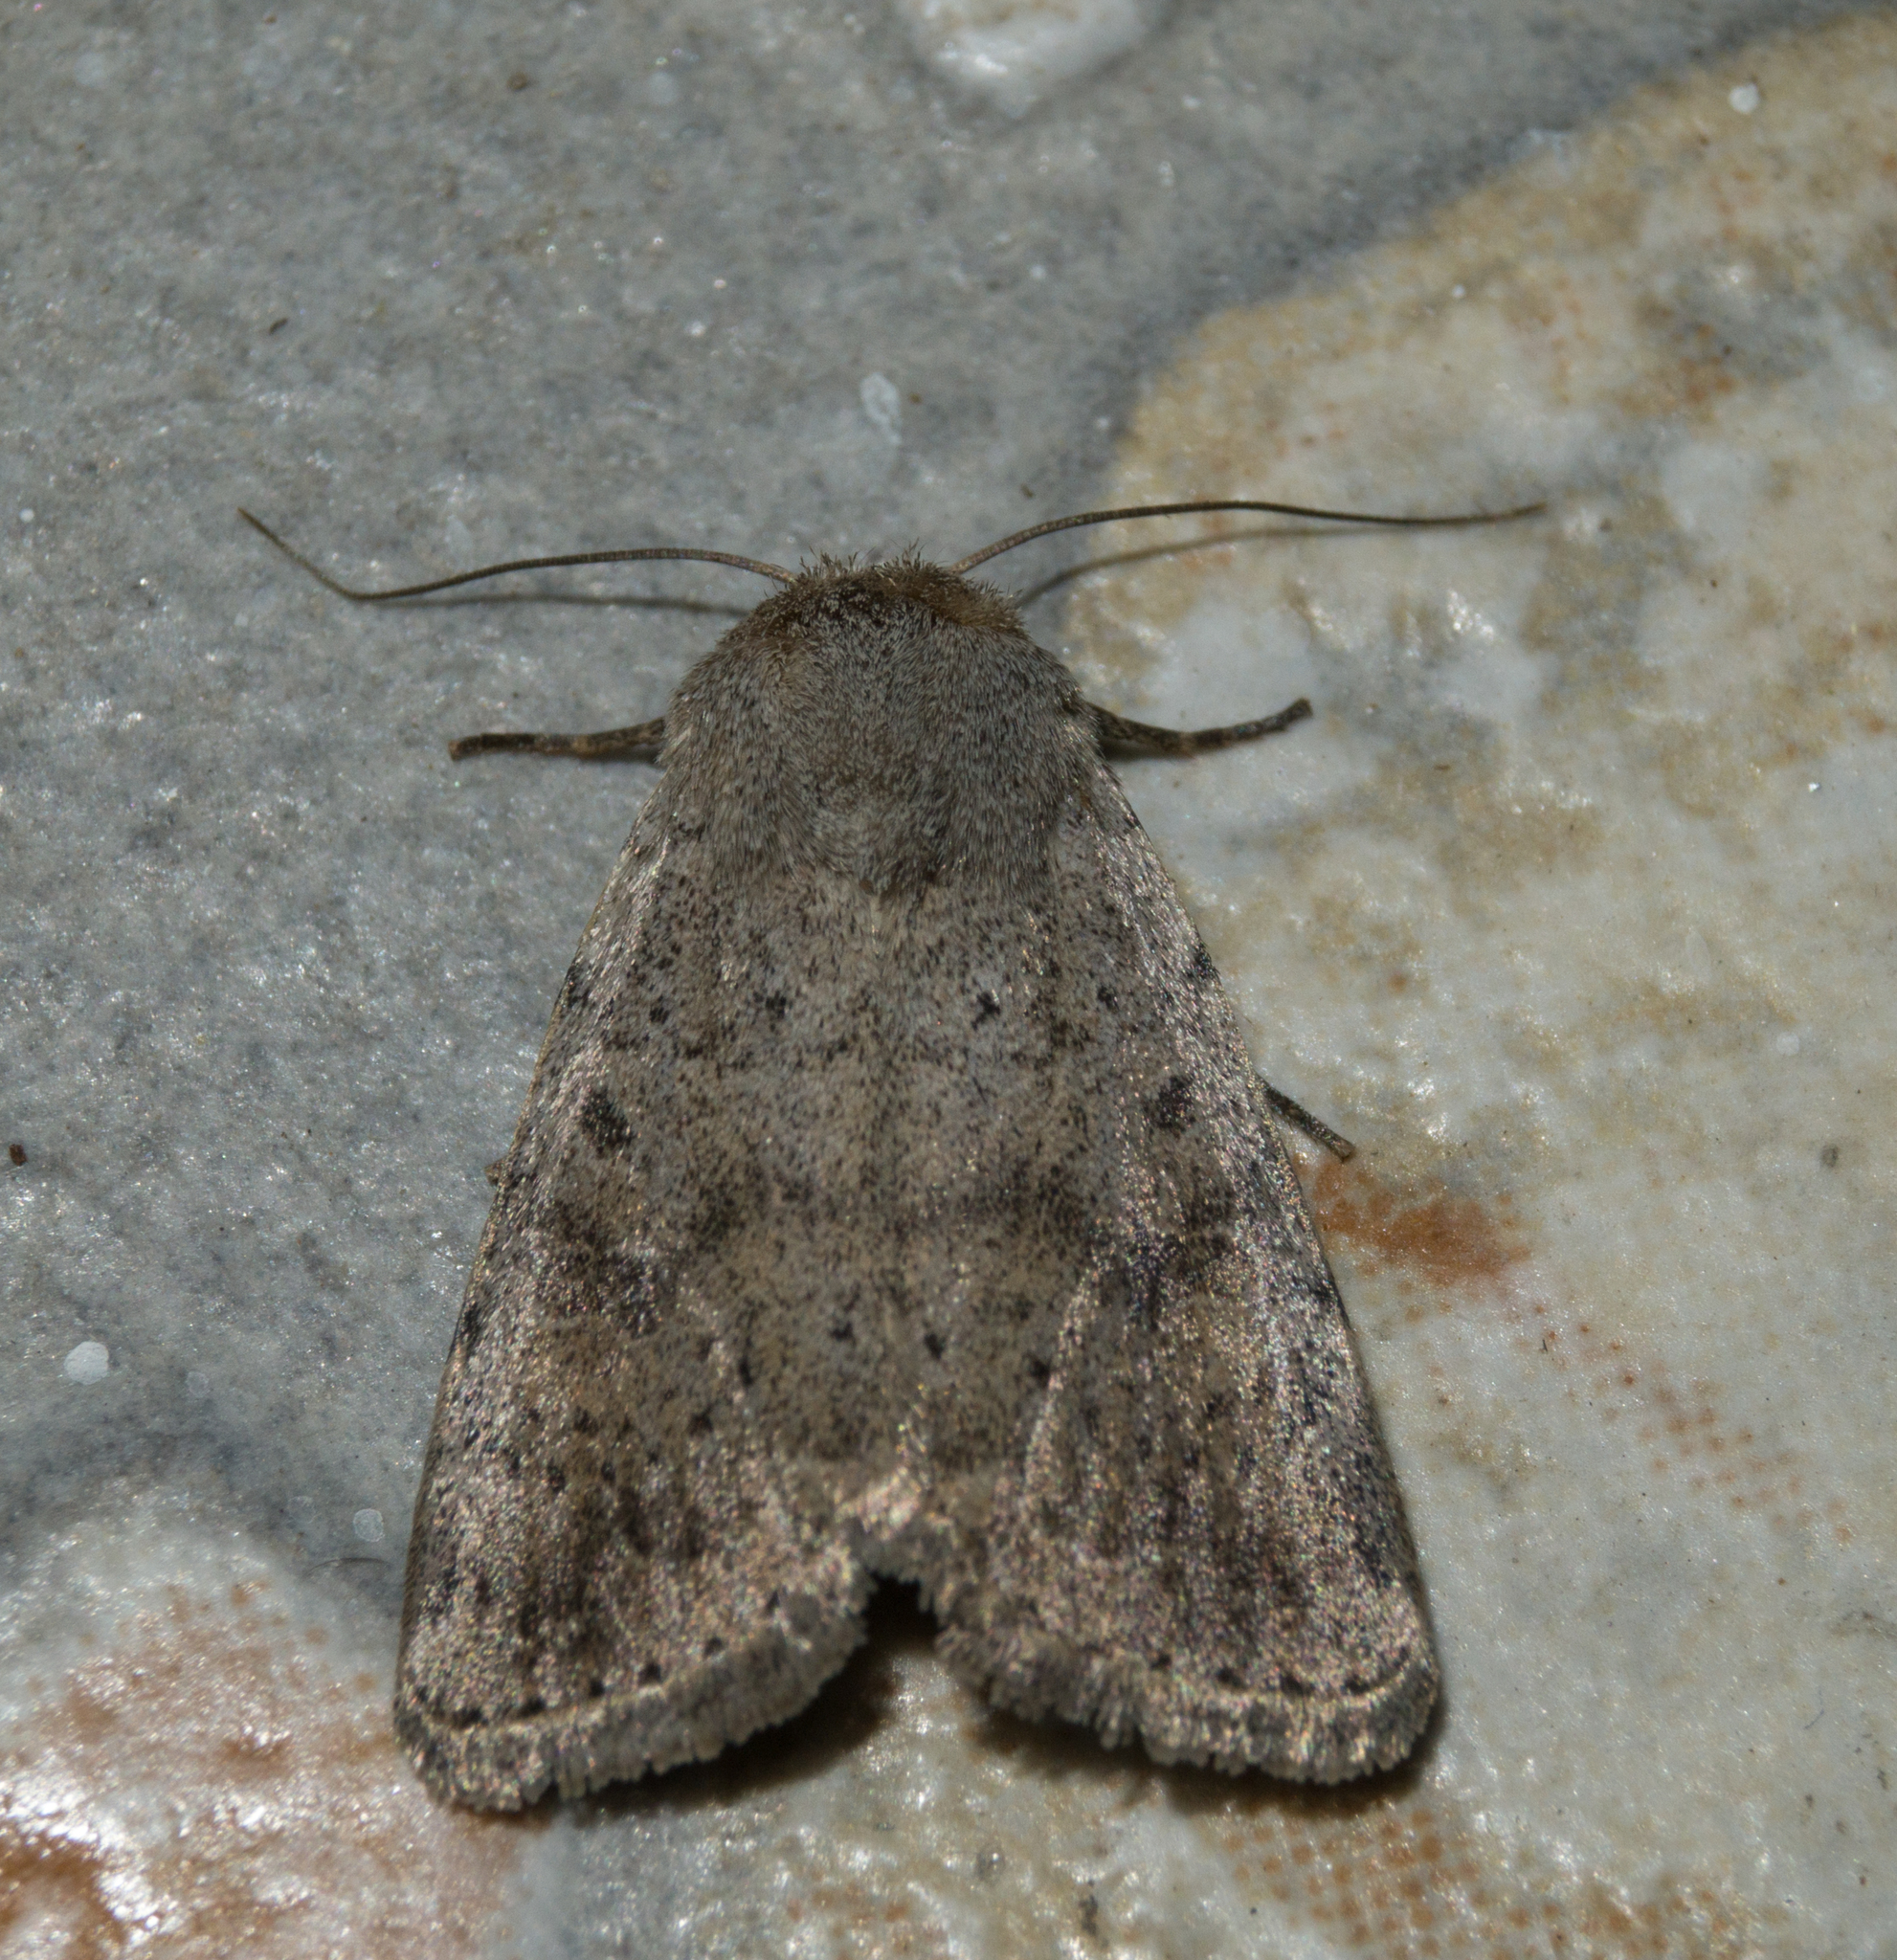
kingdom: Animalia
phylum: Arthropoda
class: Insecta
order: Lepidoptera
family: Noctuidae
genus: Hoplodrina
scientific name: Hoplodrina respersa
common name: Sprinkled rustic
